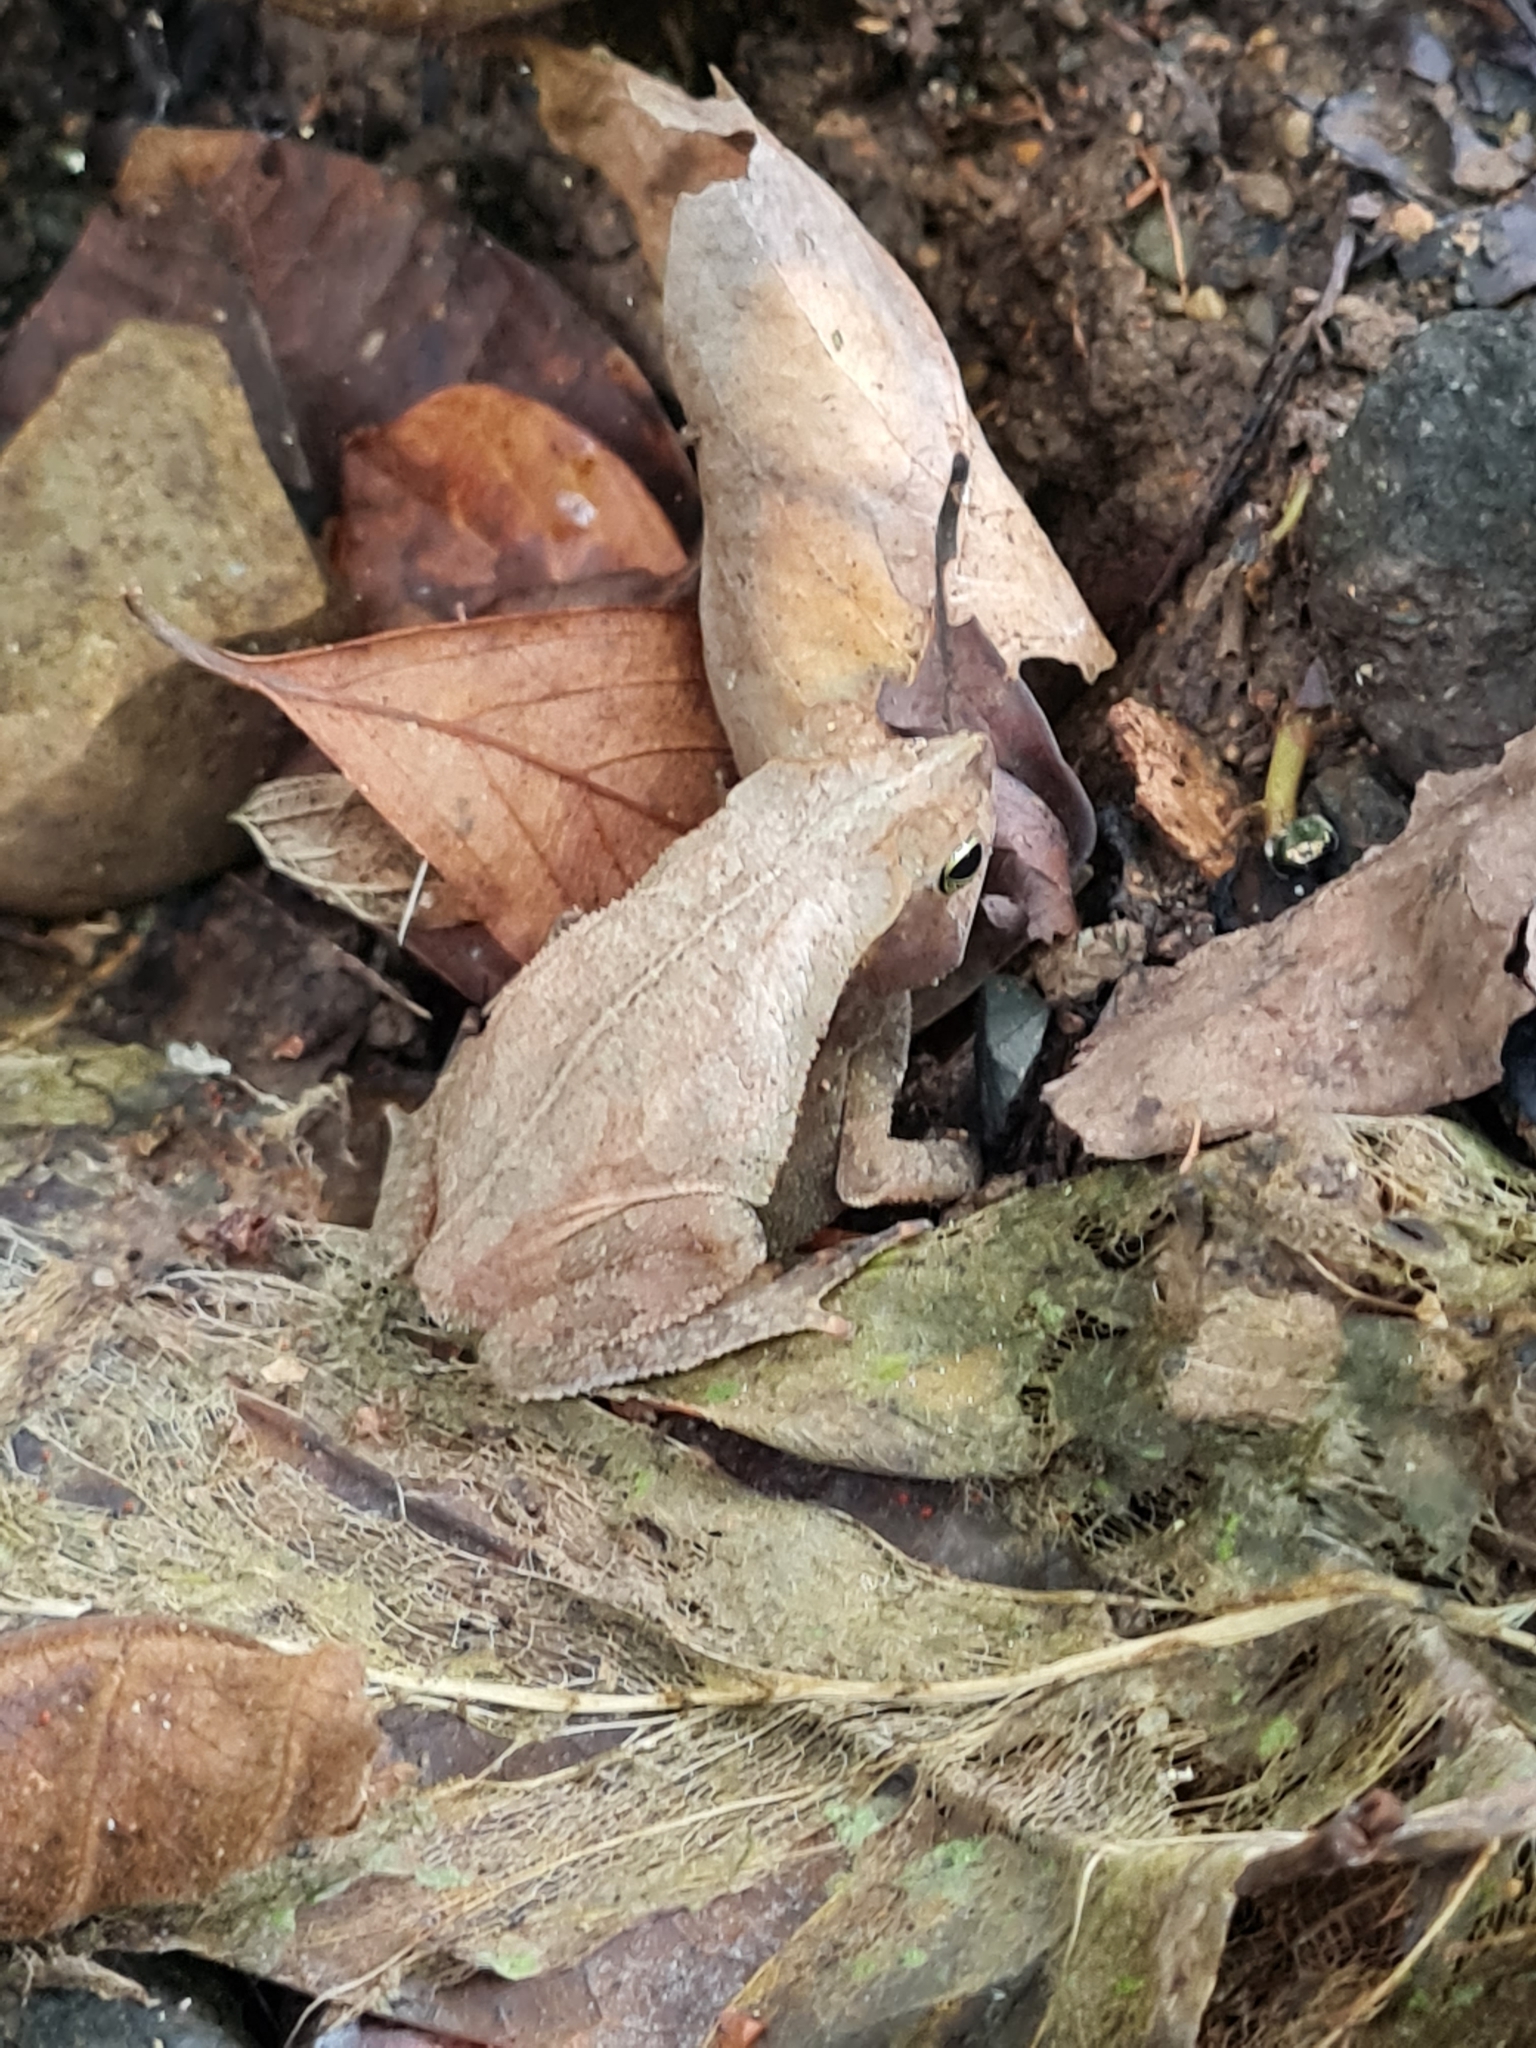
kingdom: Animalia
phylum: Chordata
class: Amphibia
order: Anura
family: Bufonidae
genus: Rhinella
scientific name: Rhinella alata
